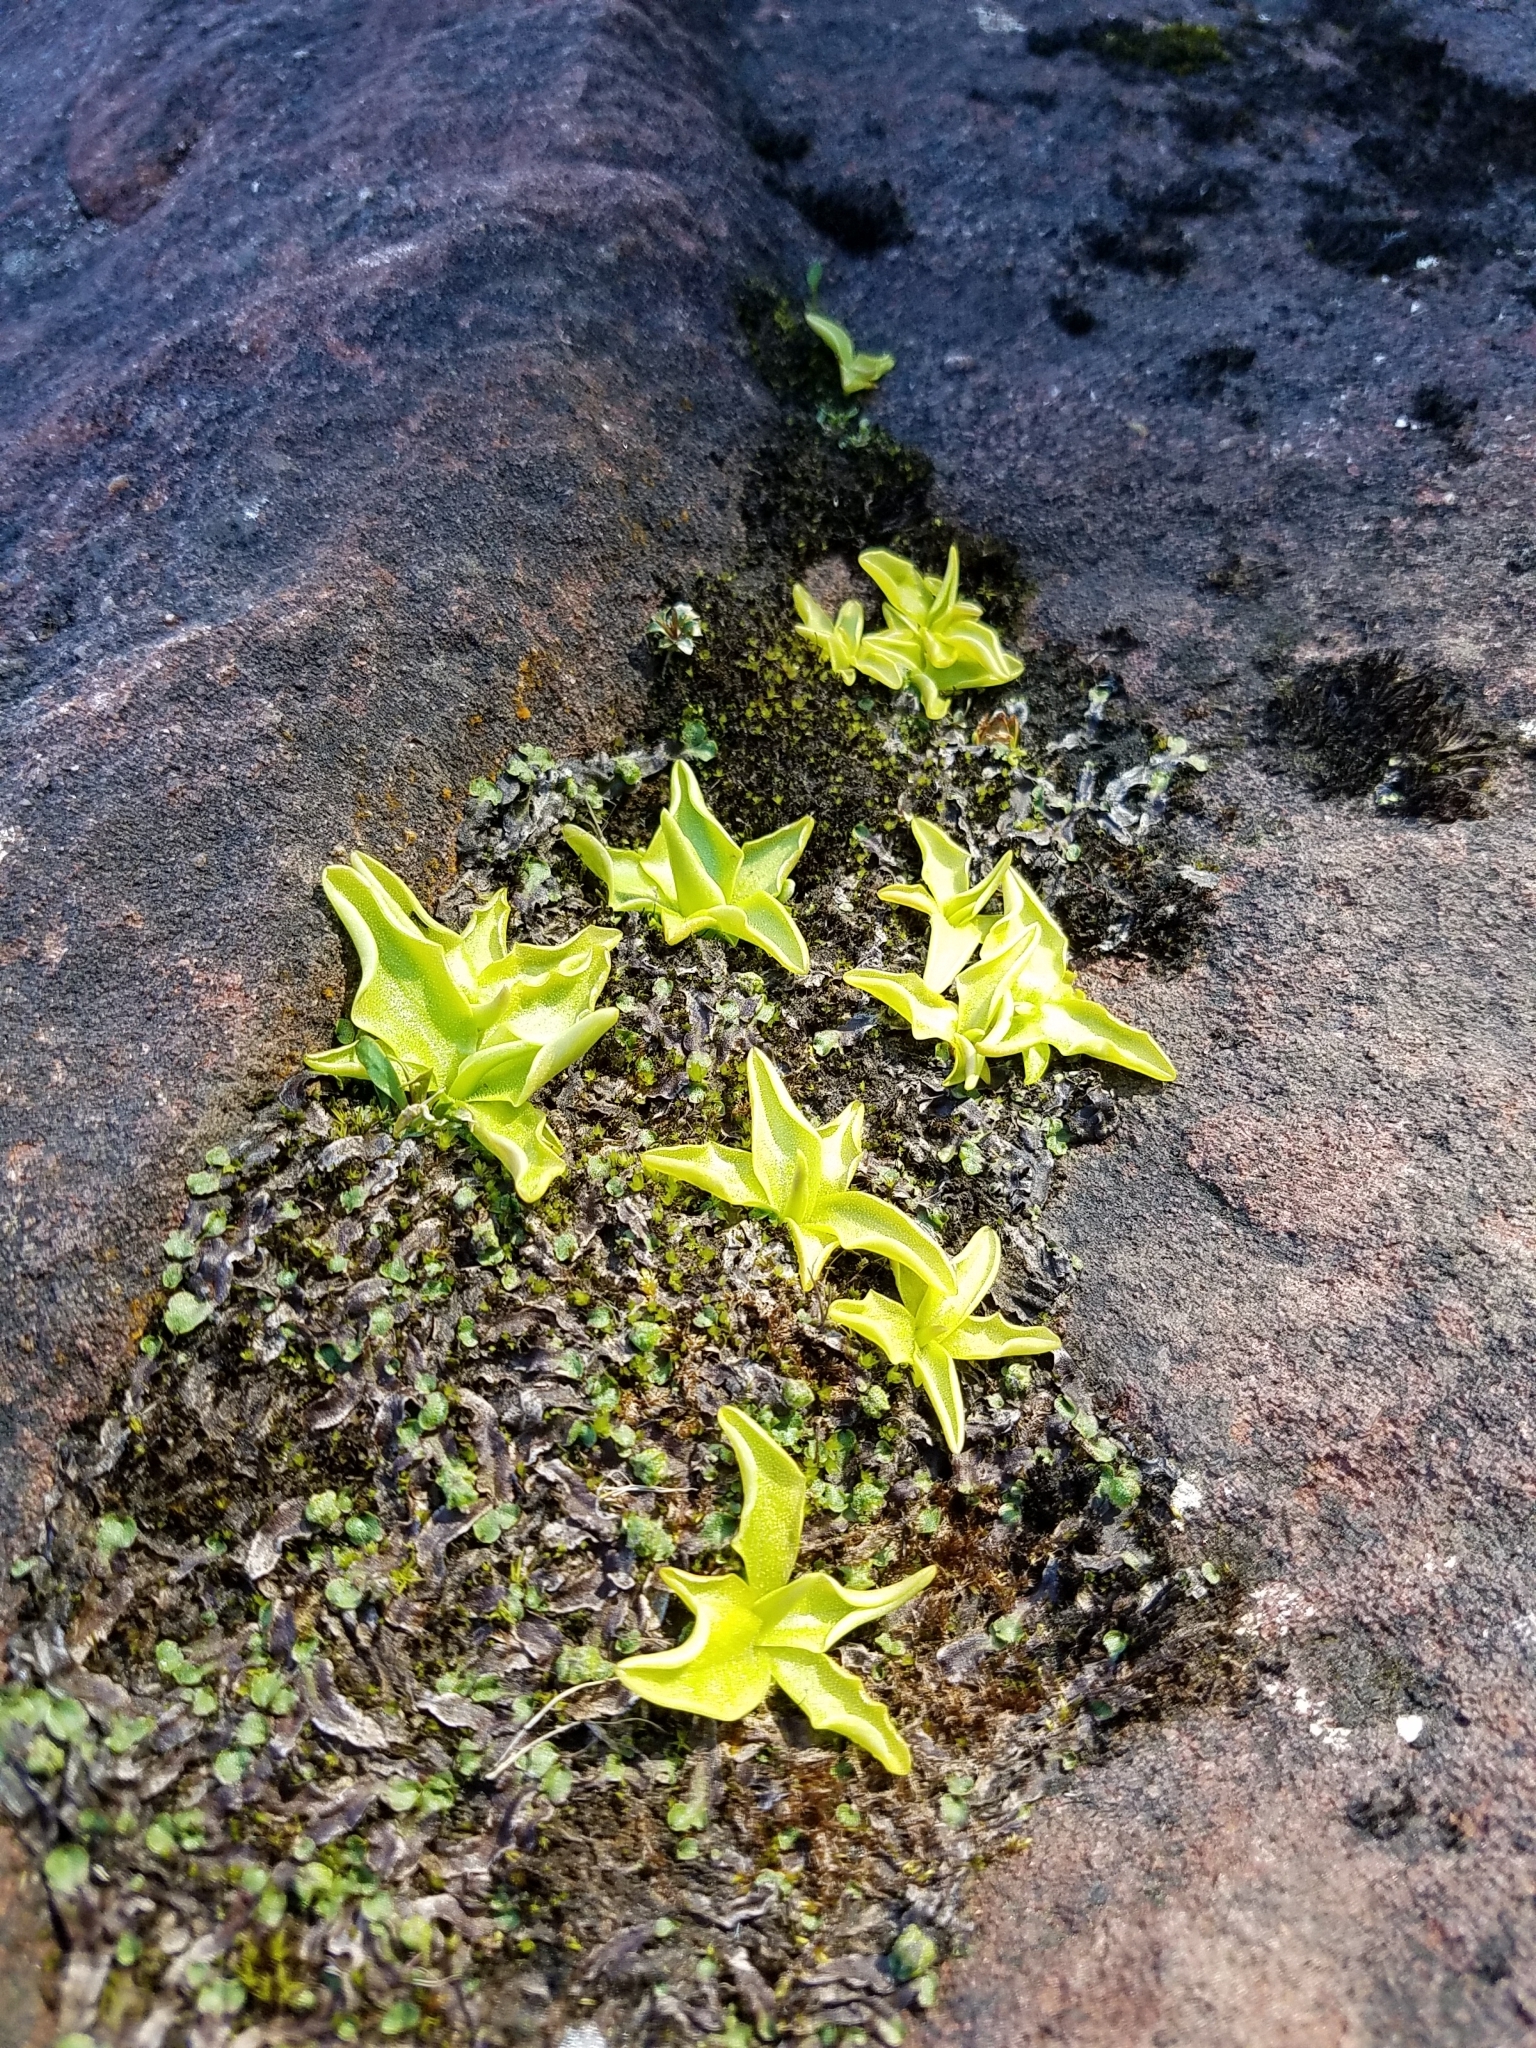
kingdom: Plantae
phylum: Tracheophyta
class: Magnoliopsida
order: Lamiales
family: Lentibulariaceae
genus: Pinguicula
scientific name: Pinguicula vulgaris
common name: Common butterwort
